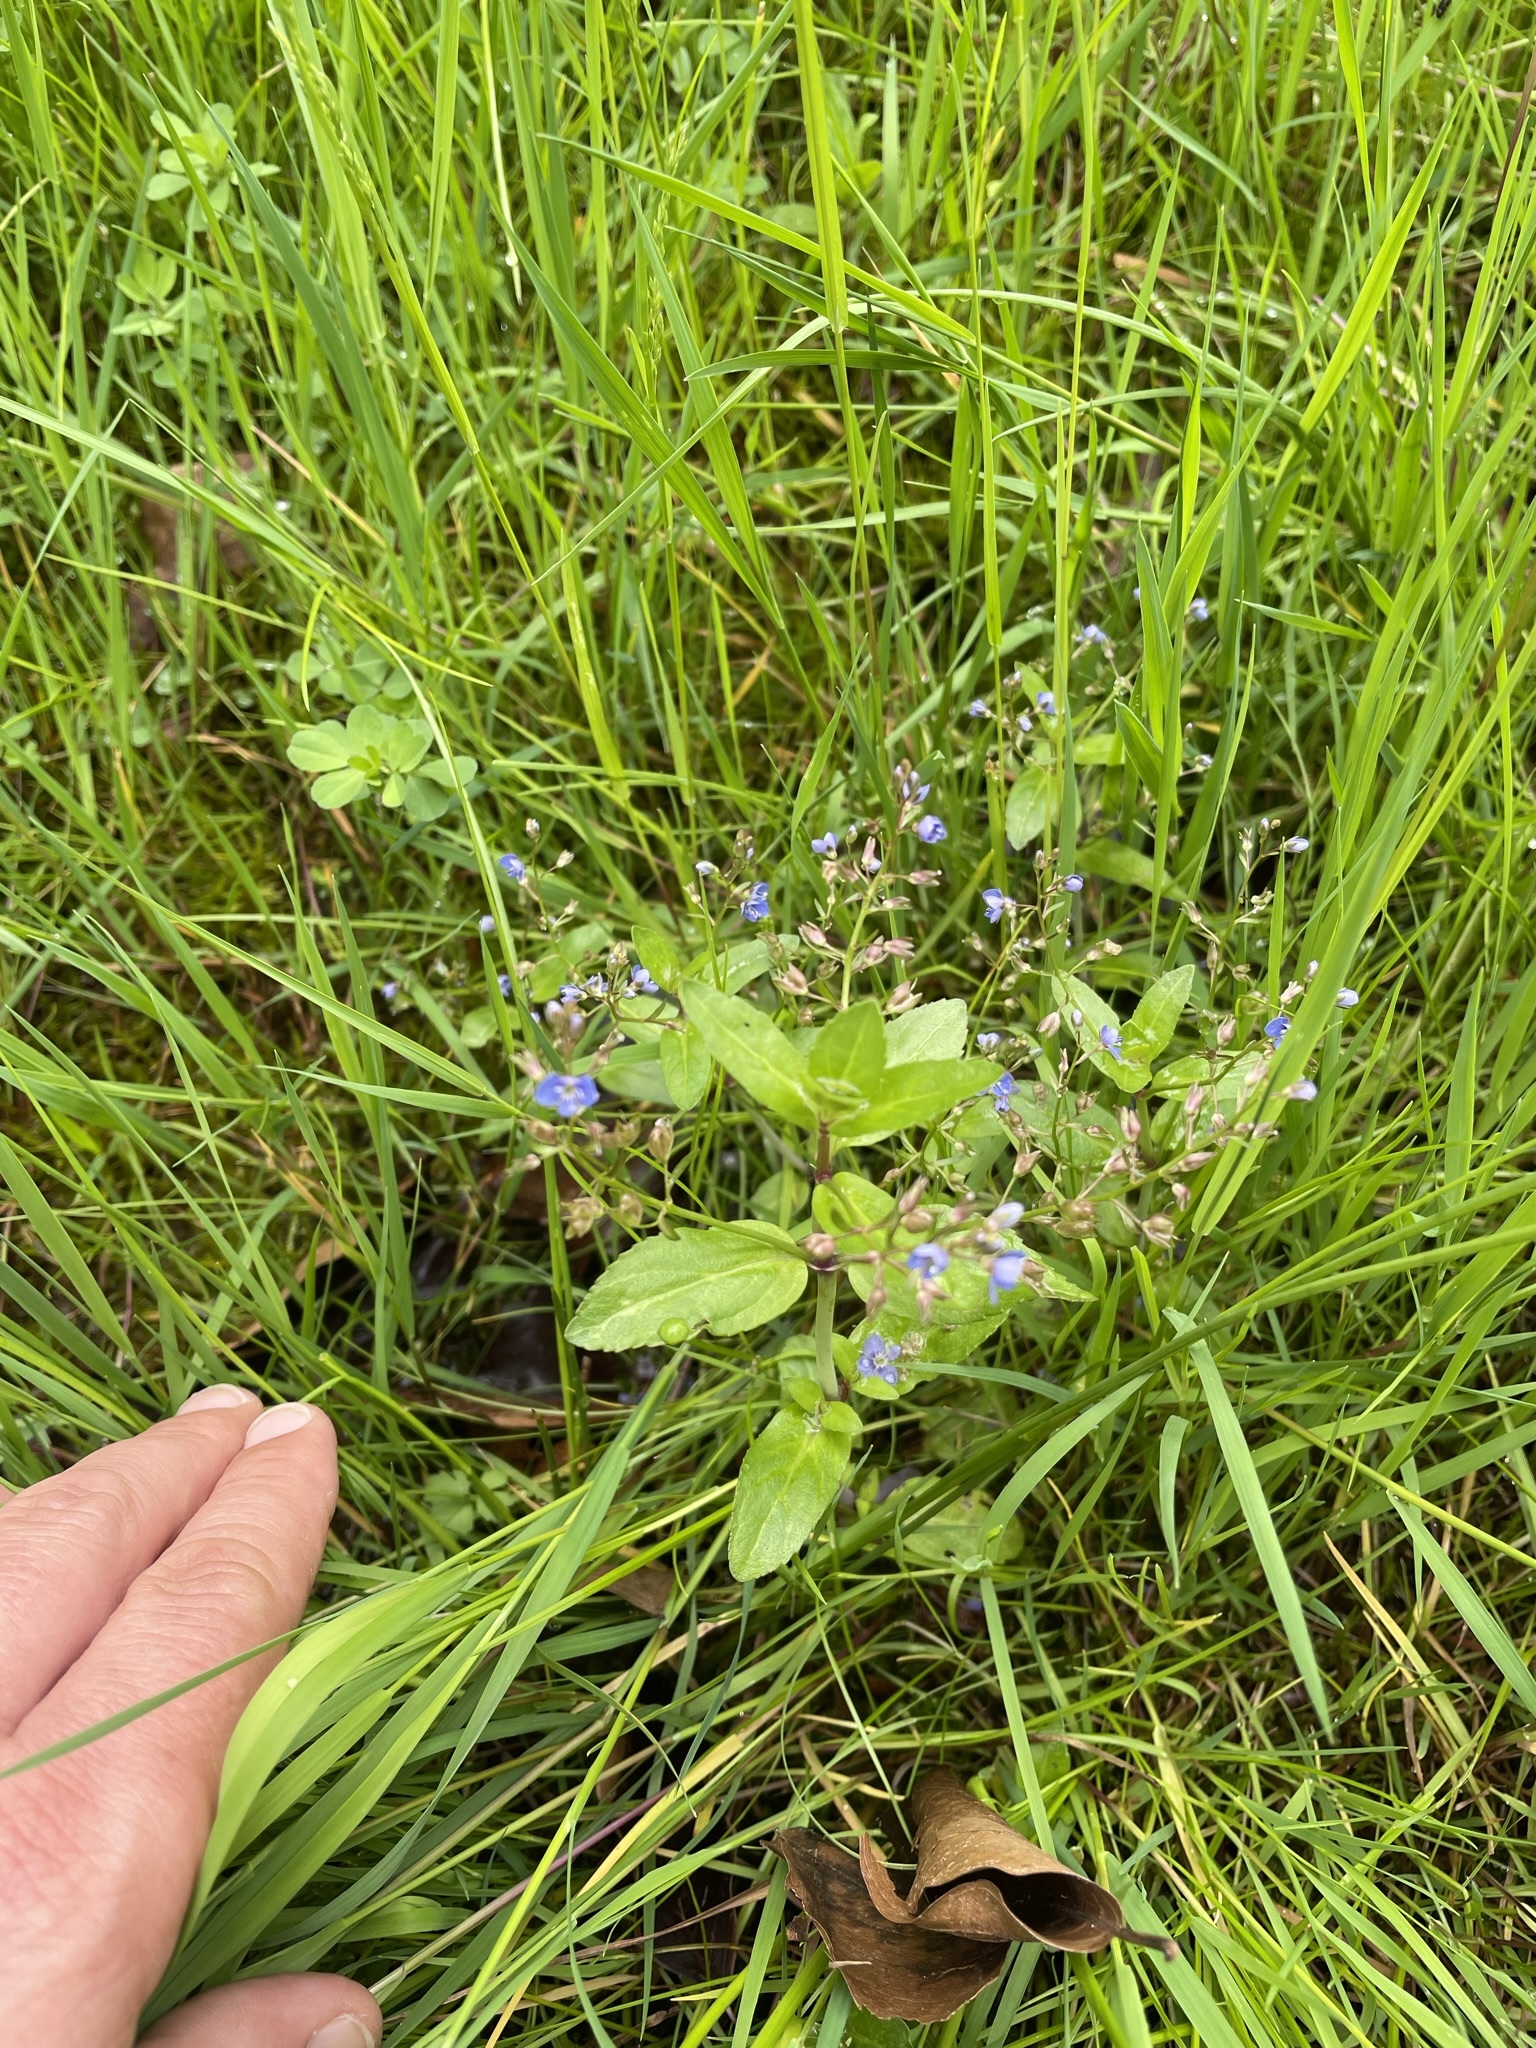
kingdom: Plantae
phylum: Tracheophyta
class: Magnoliopsida
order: Lamiales
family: Plantaginaceae
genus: Veronica
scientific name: Veronica beccabunga
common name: Brooklime
